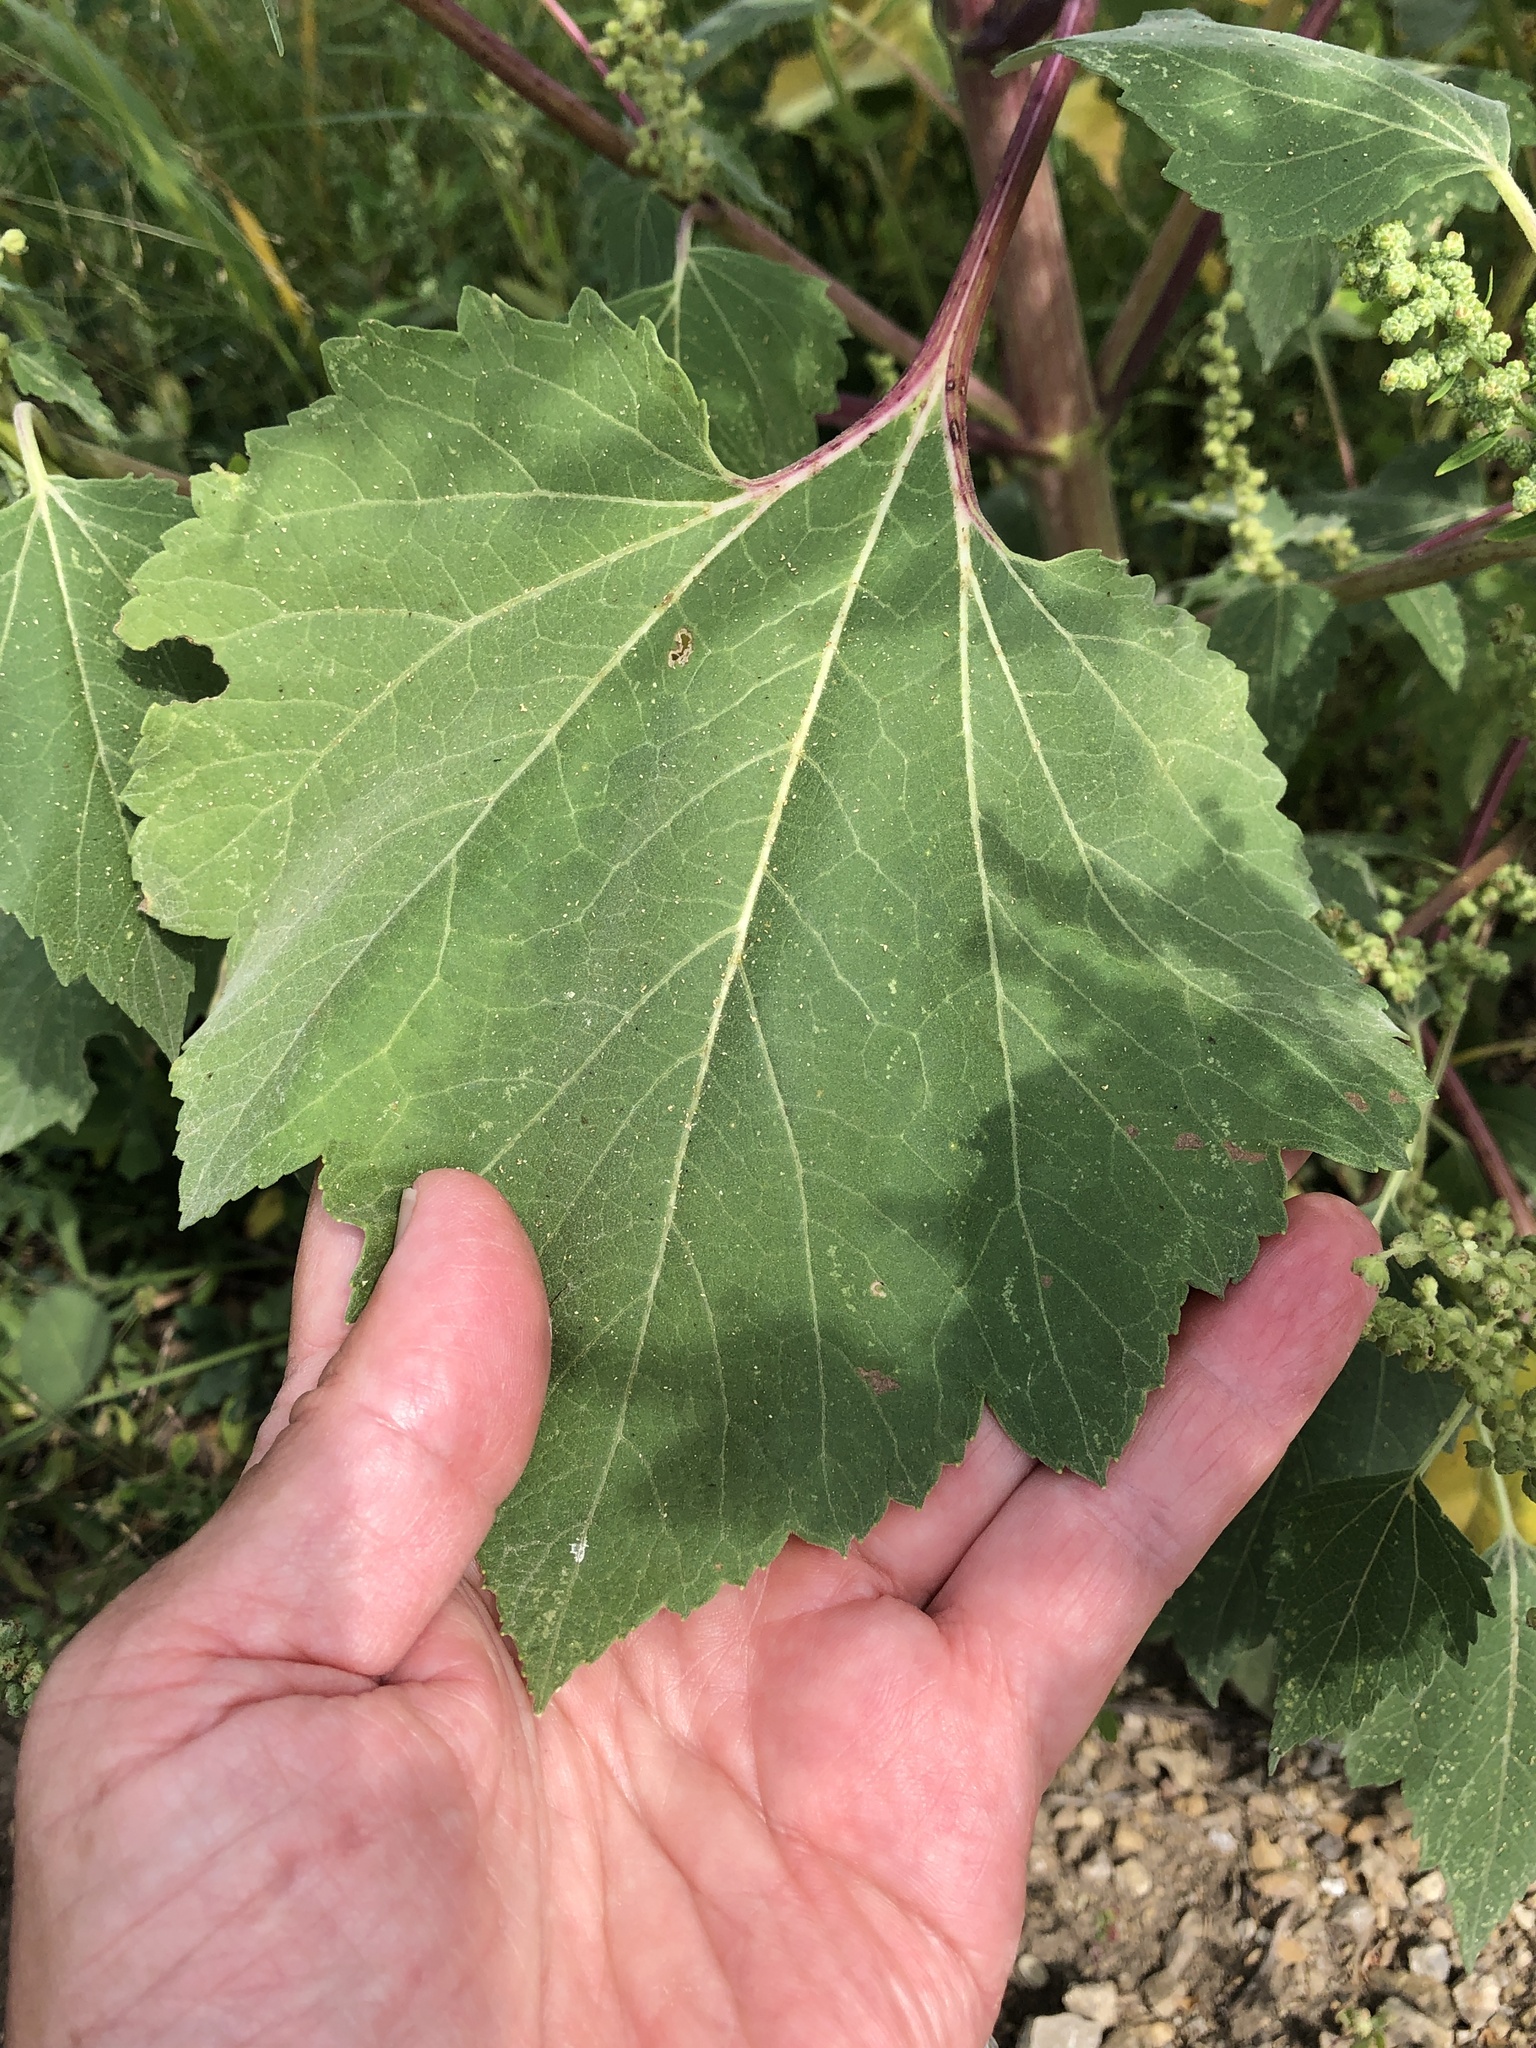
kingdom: Plantae
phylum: Tracheophyta
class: Magnoliopsida
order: Asterales
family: Asteraceae
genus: Cyclachaena
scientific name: Cyclachaena xanthiifolia
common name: Giant sumpweed
